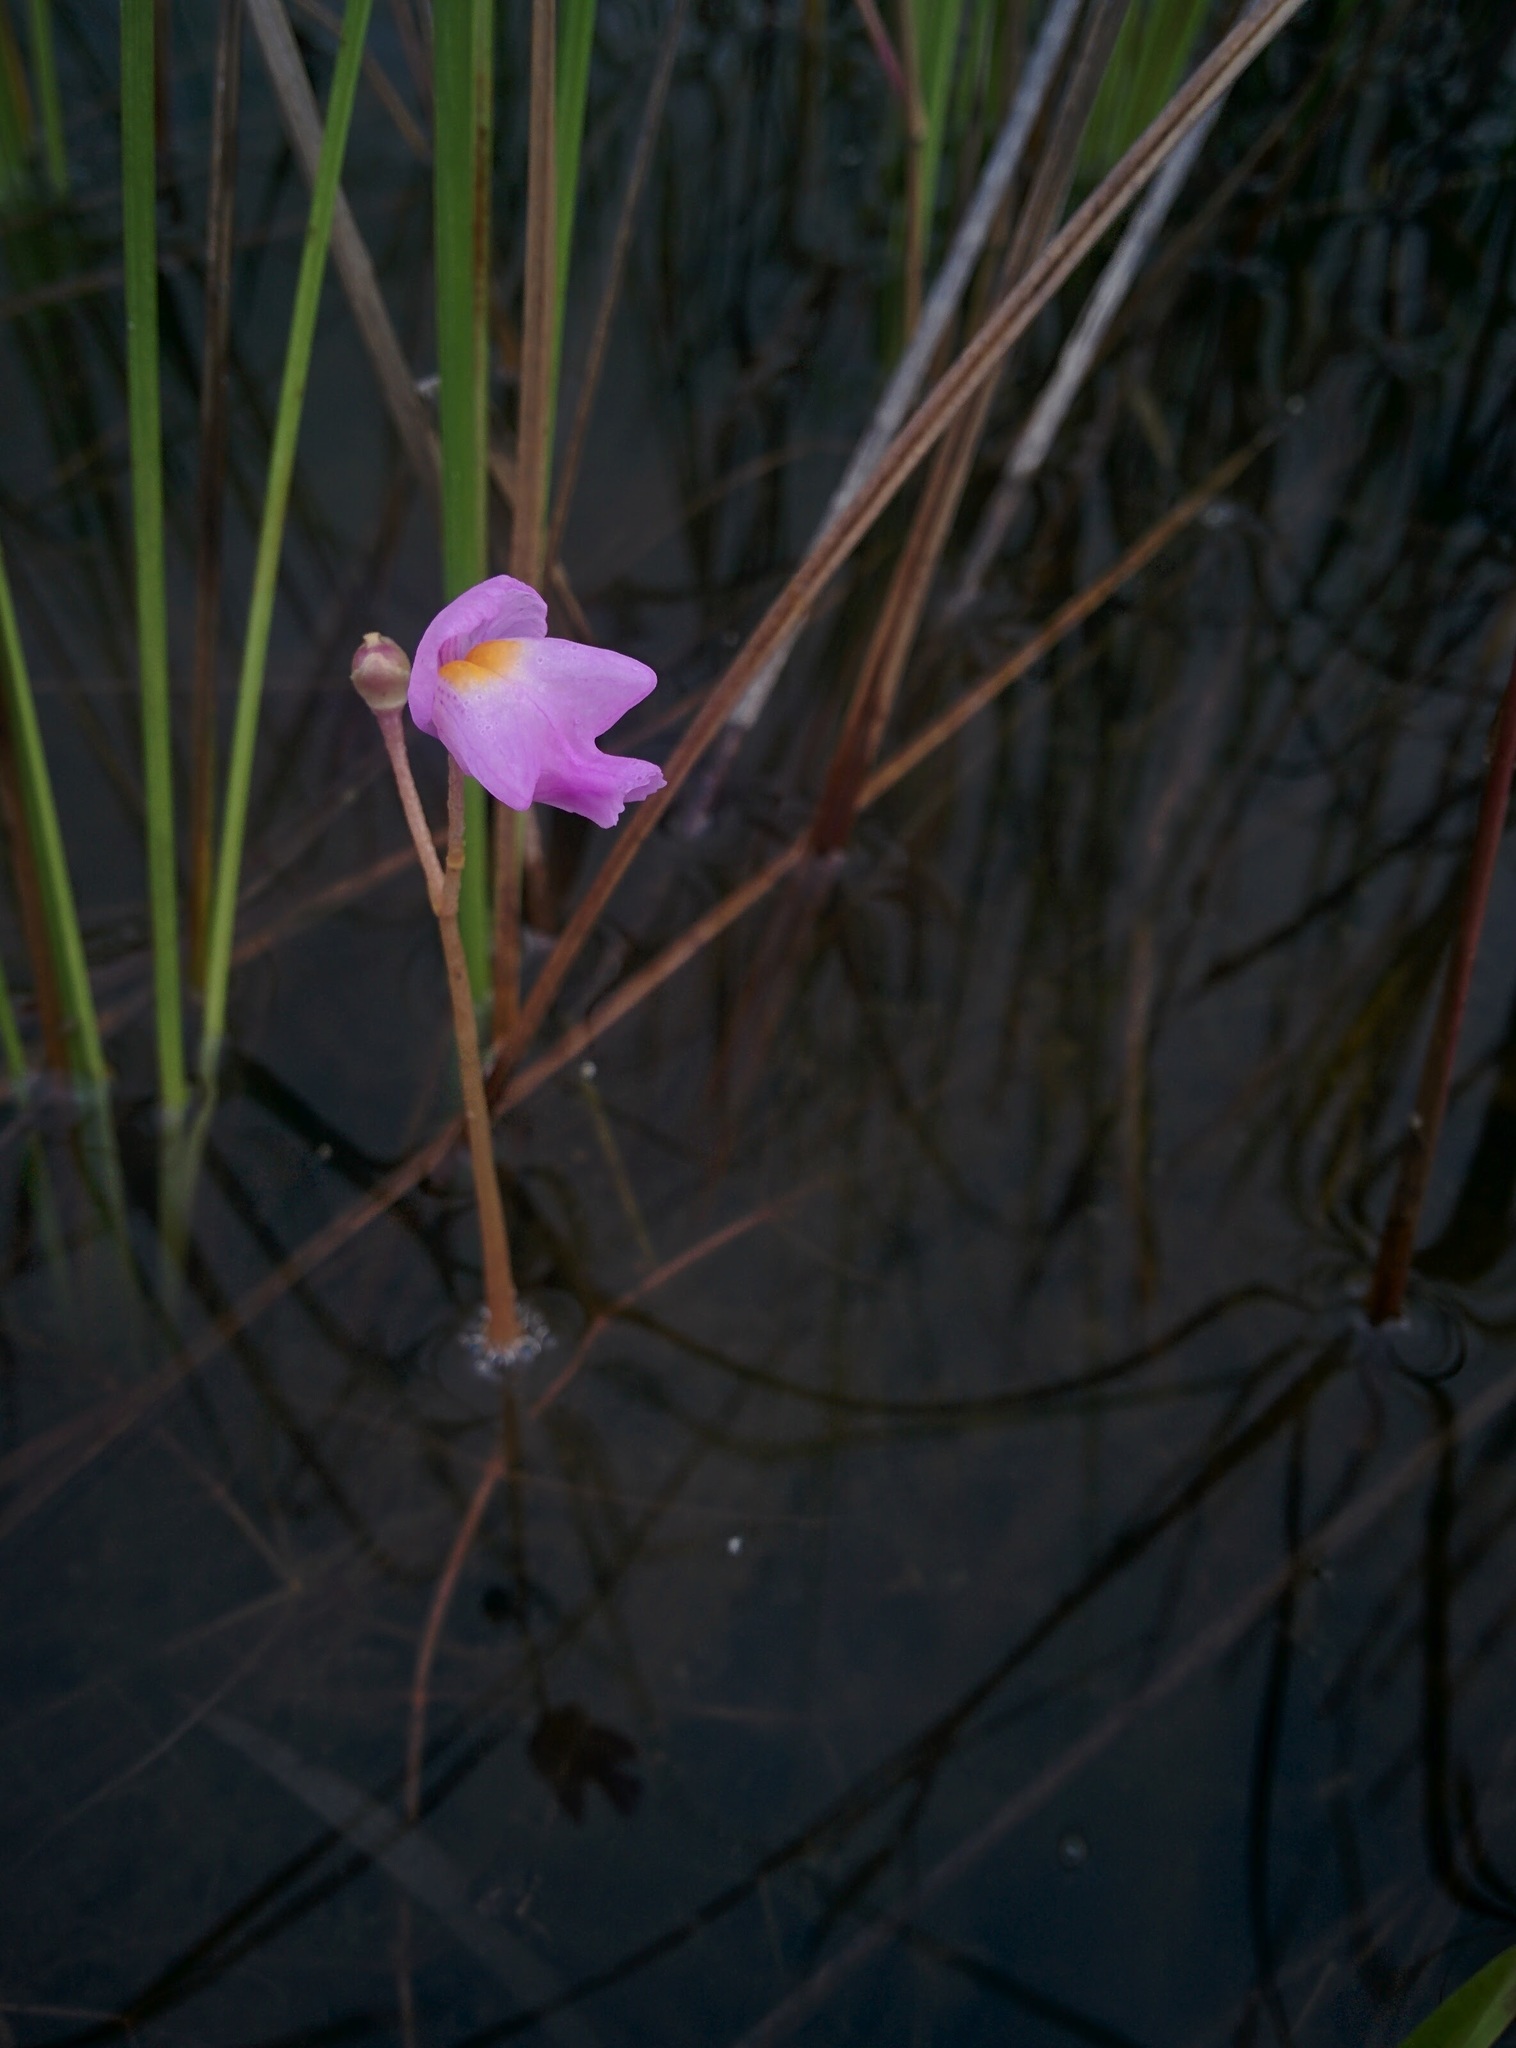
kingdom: Plantae
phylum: Tracheophyta
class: Magnoliopsida
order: Lamiales
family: Lentibulariaceae
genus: Utricularia
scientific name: Utricularia myriocista
